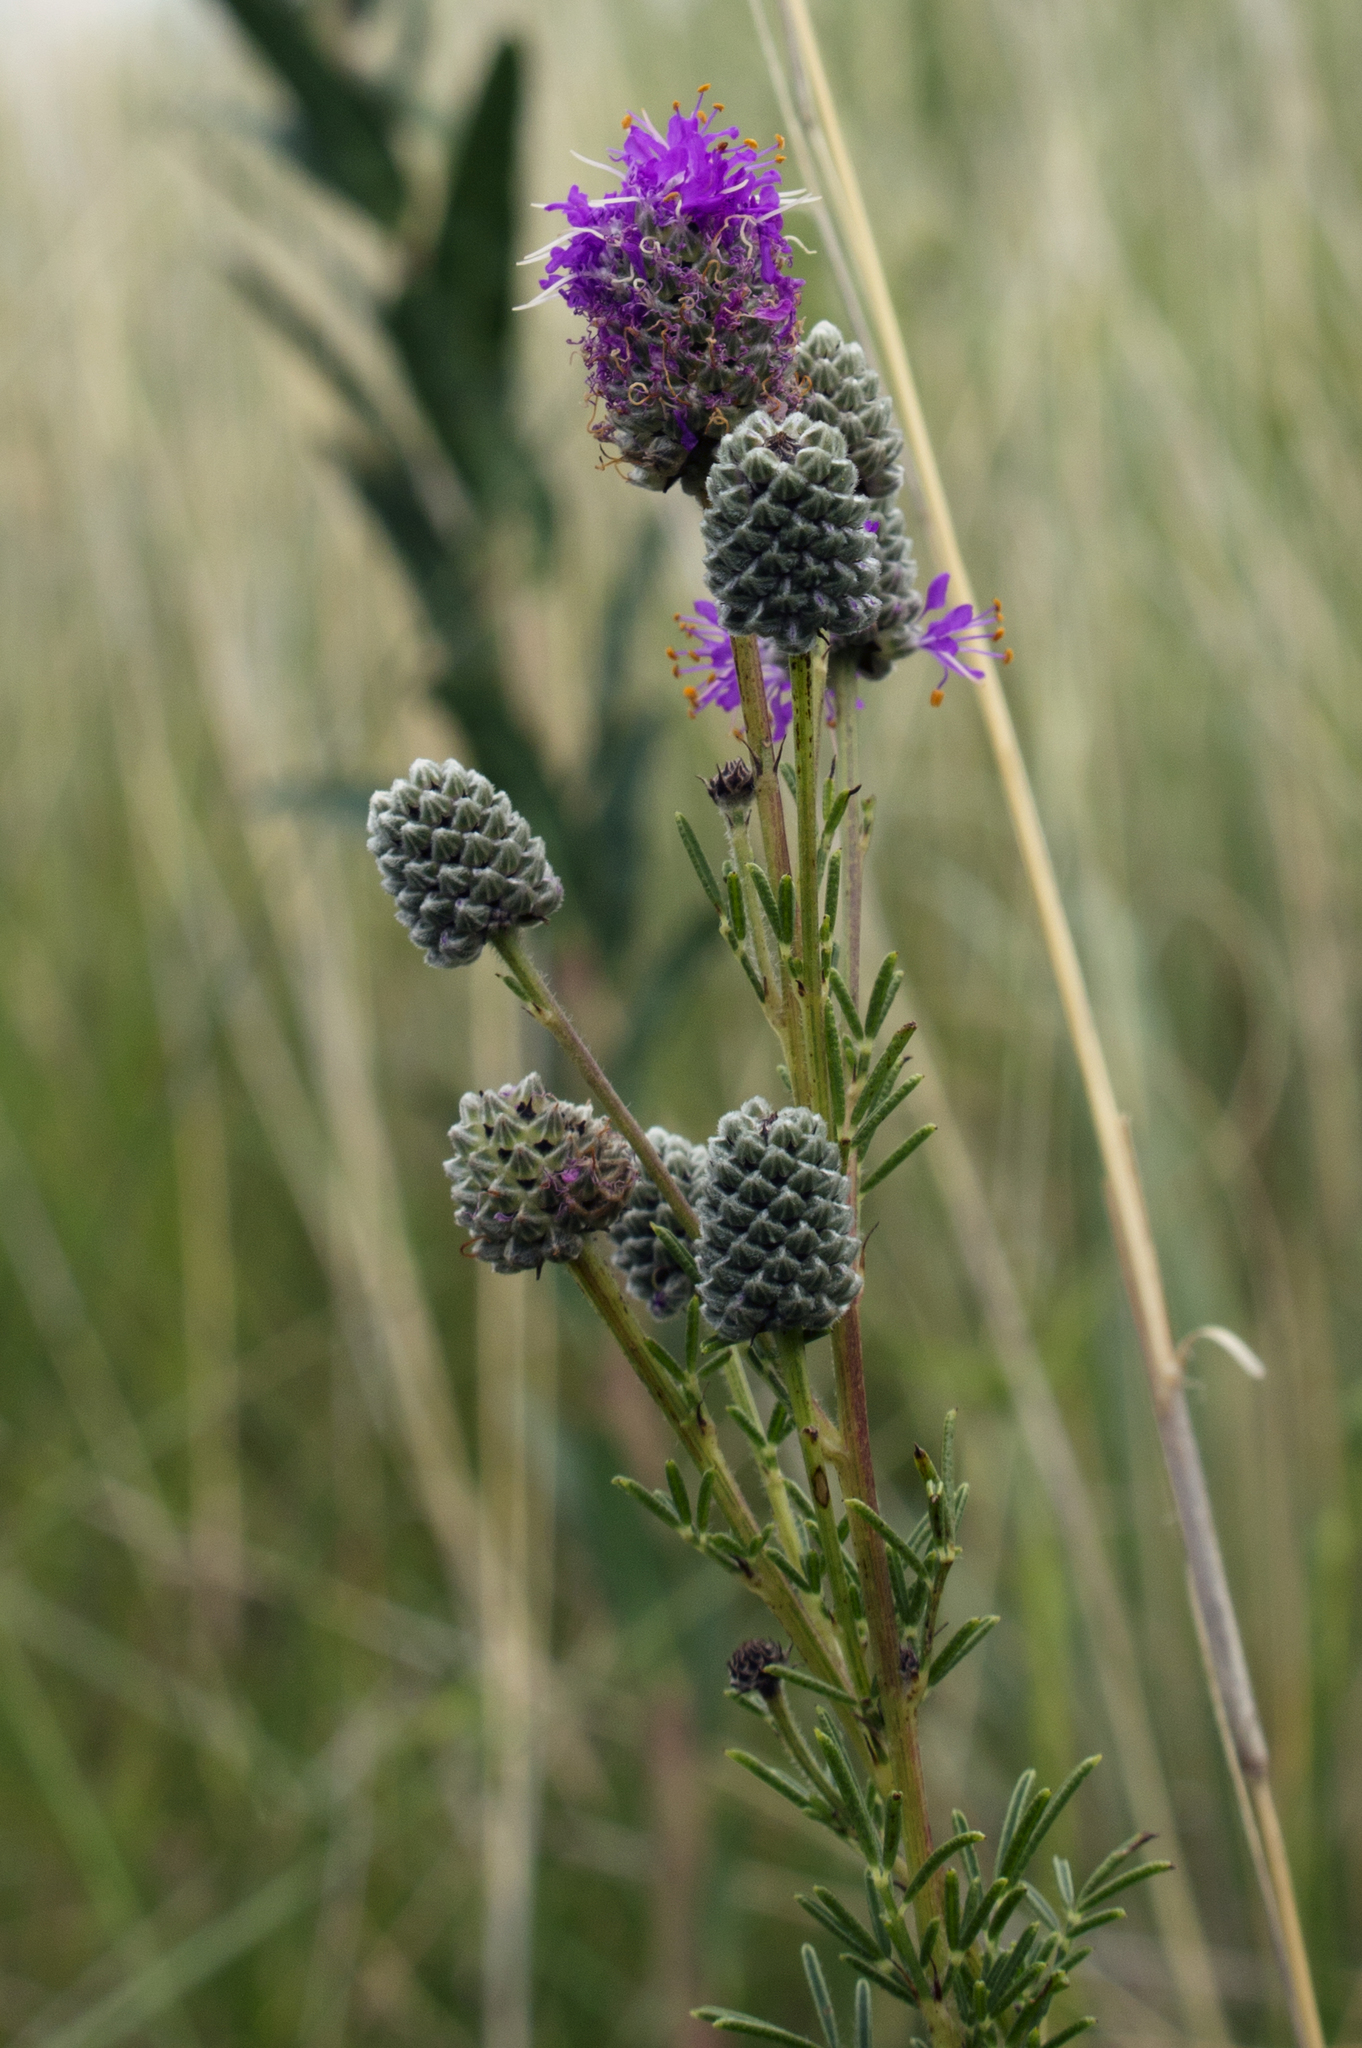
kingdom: Plantae
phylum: Tracheophyta
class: Magnoliopsida
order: Fabales
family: Fabaceae
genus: Dalea
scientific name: Dalea purpurea
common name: Purple prairie-clover
